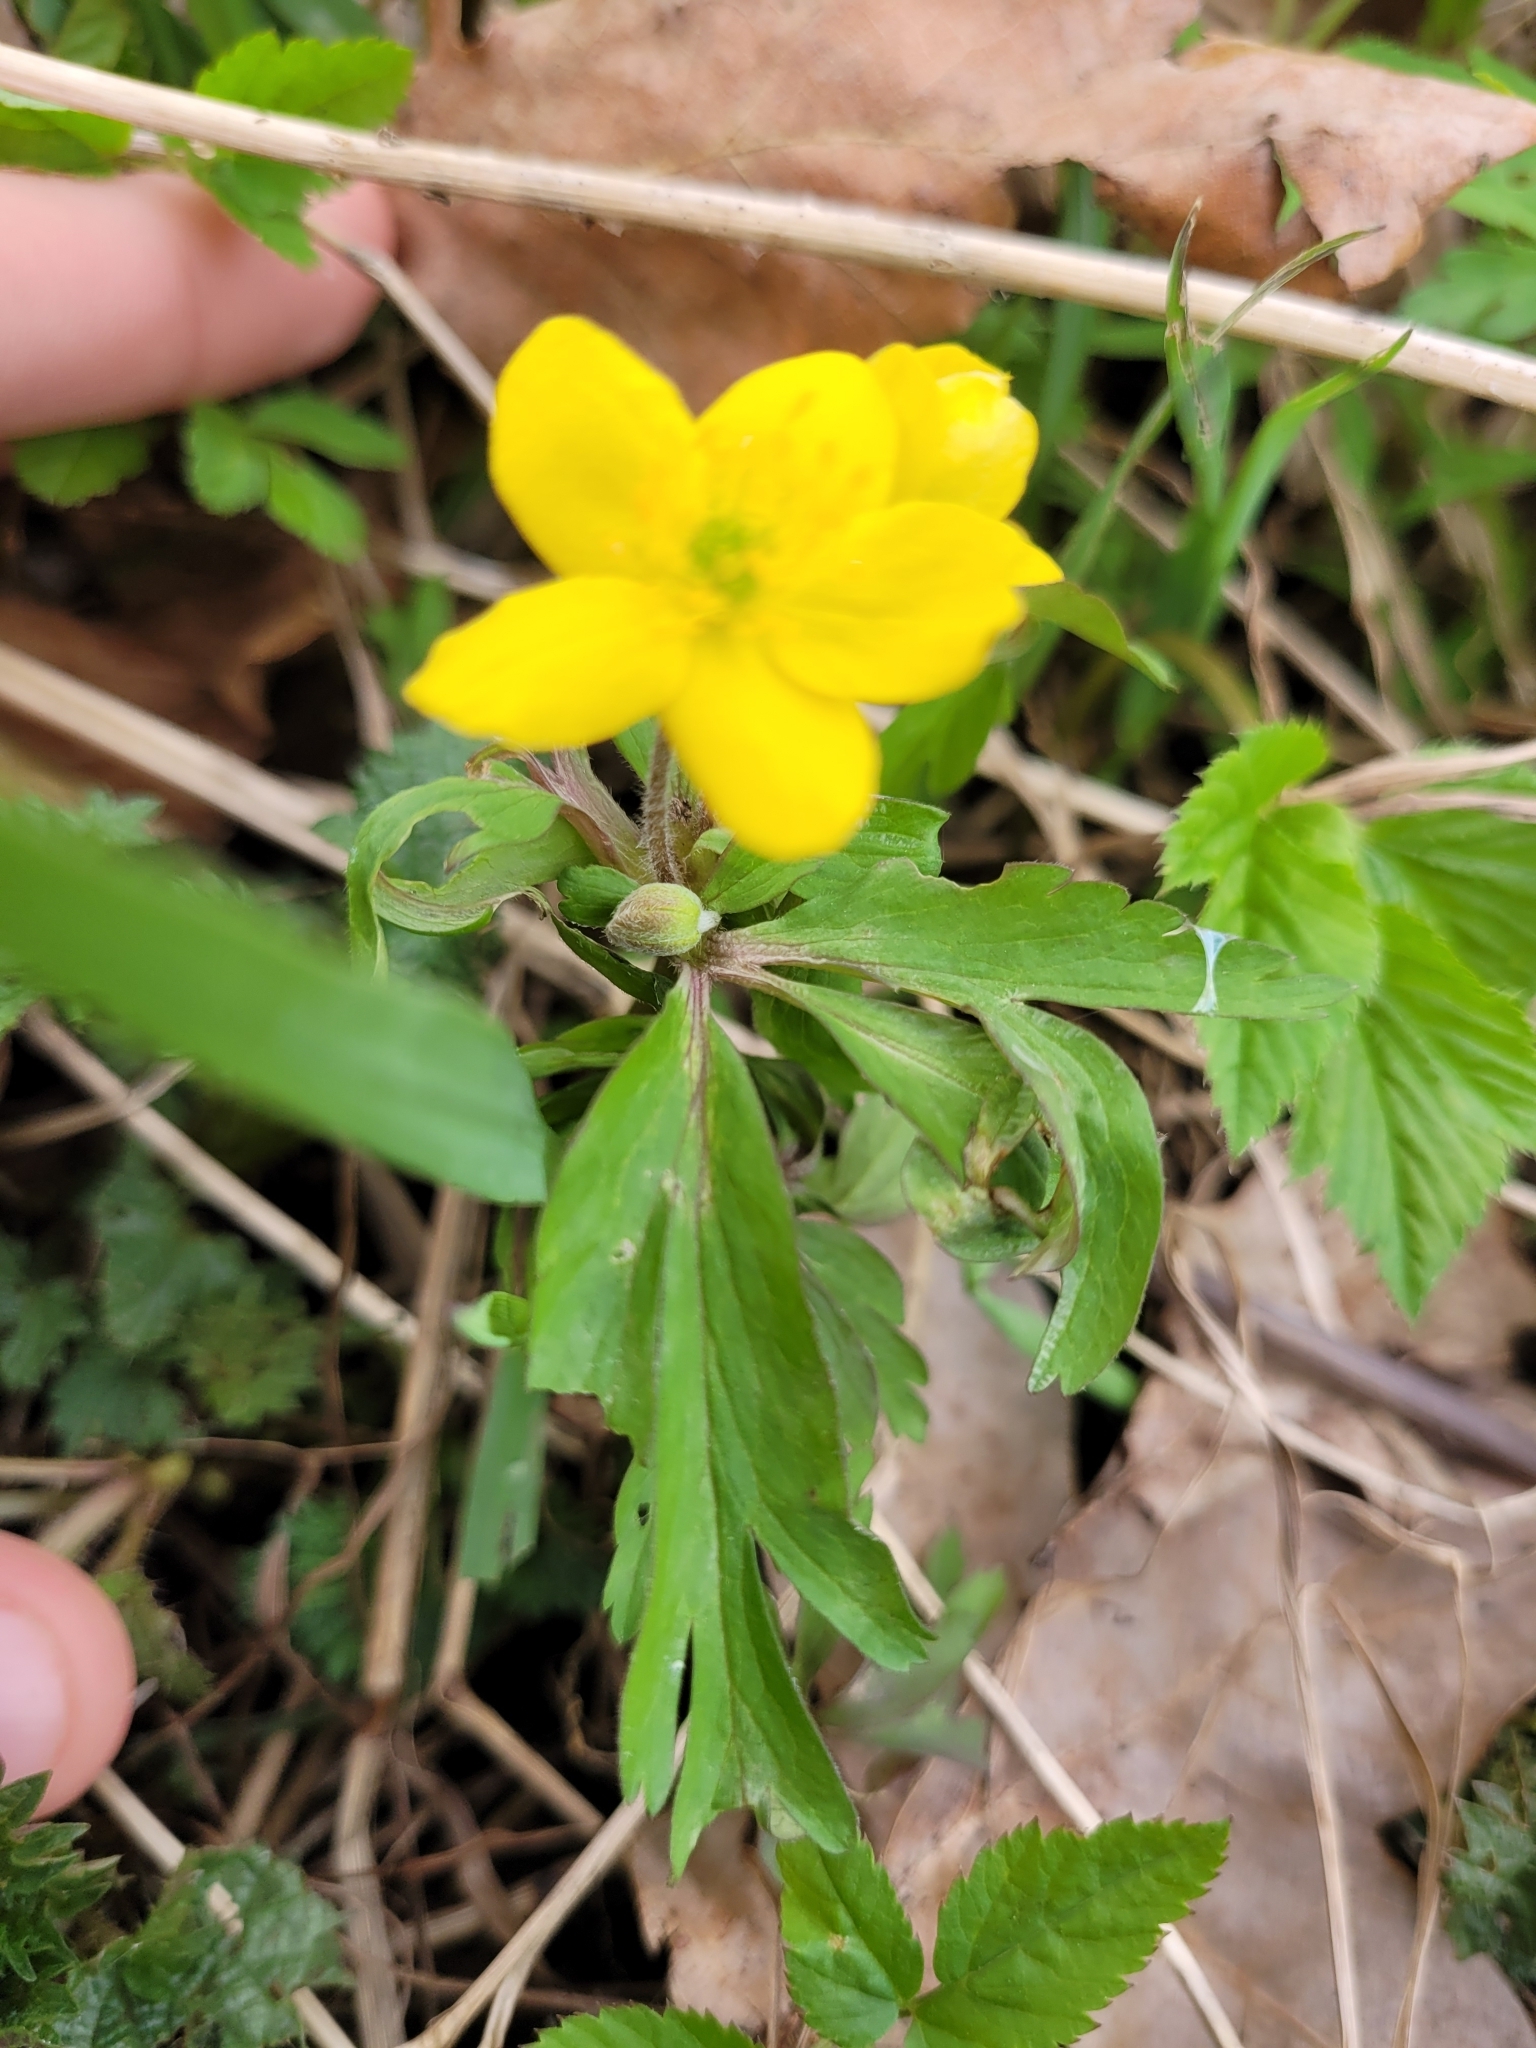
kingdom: Plantae
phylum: Tracheophyta
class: Magnoliopsida
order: Ranunculales
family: Ranunculaceae
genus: Anemone
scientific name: Anemone ranunculoides
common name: Yellow anemone
